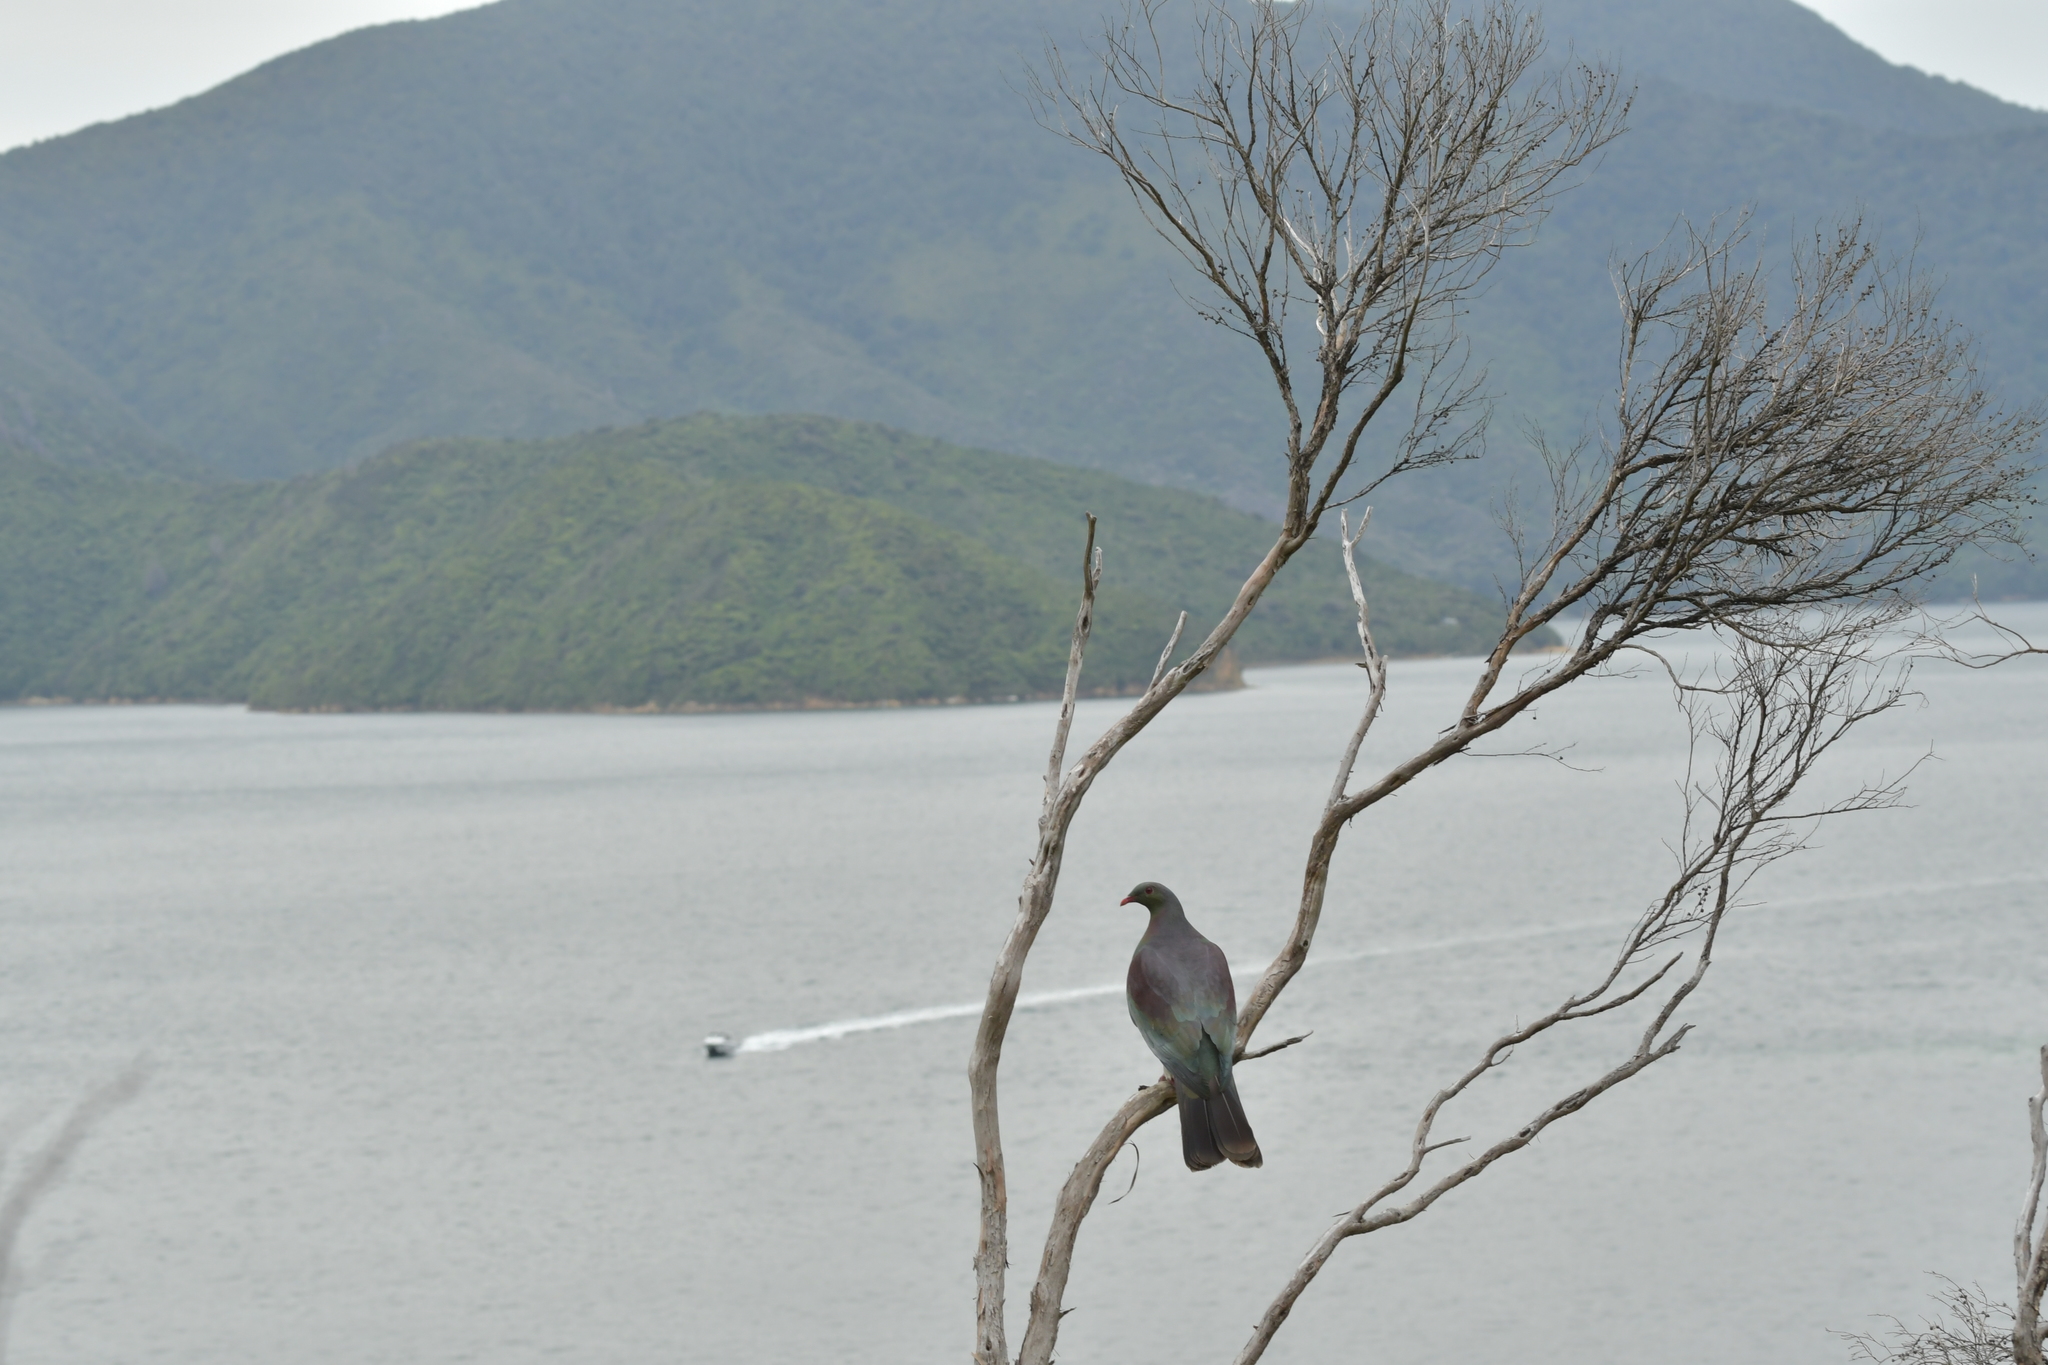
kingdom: Animalia
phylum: Chordata
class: Aves
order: Columbiformes
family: Columbidae
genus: Hemiphaga
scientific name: Hemiphaga novaeseelandiae
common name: New zealand pigeon
